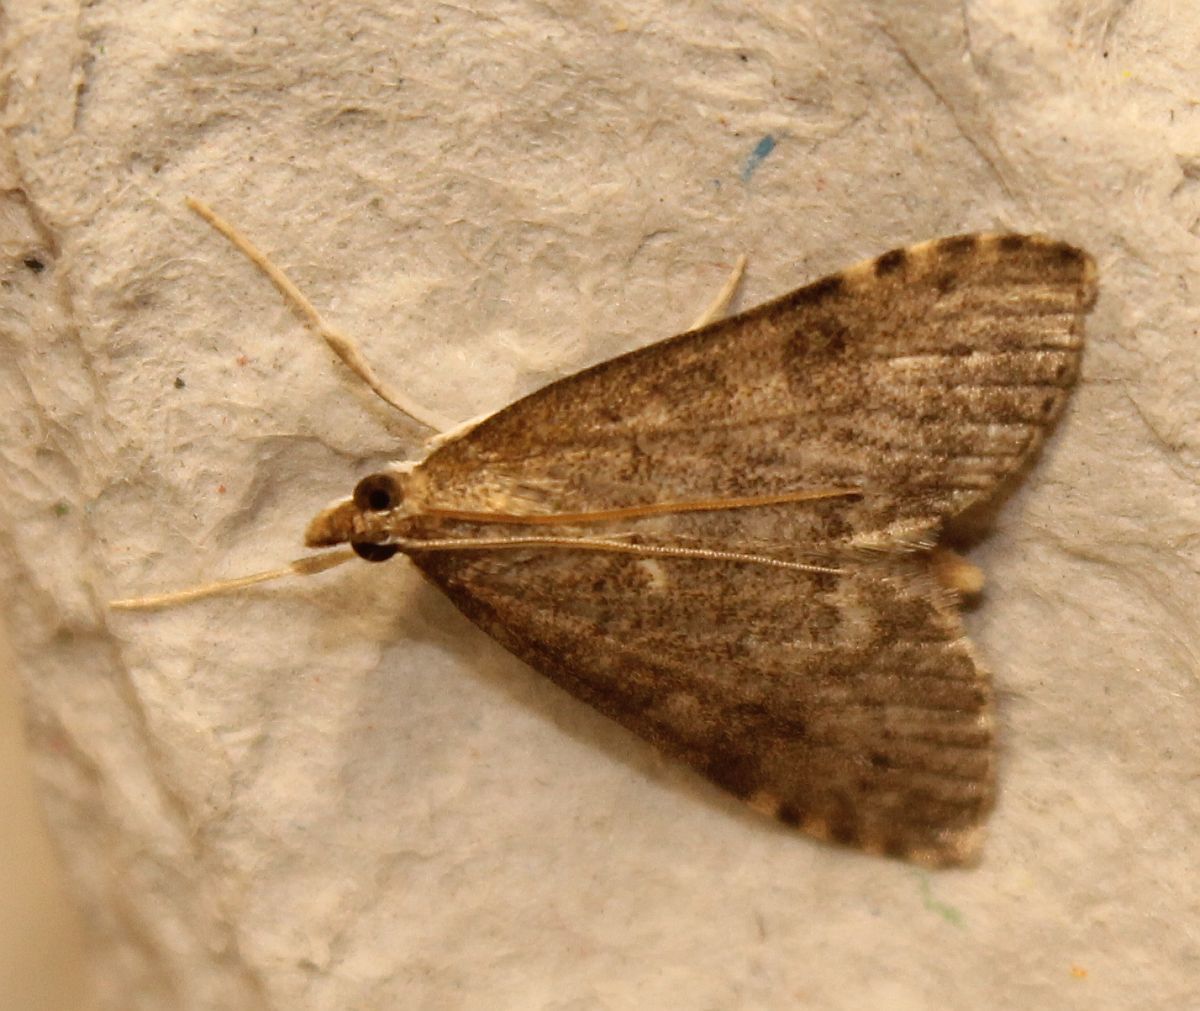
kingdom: Animalia
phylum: Arthropoda
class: Insecta
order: Lepidoptera
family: Crambidae
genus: Udea
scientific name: Udea prunalis
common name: Dusky pearl
